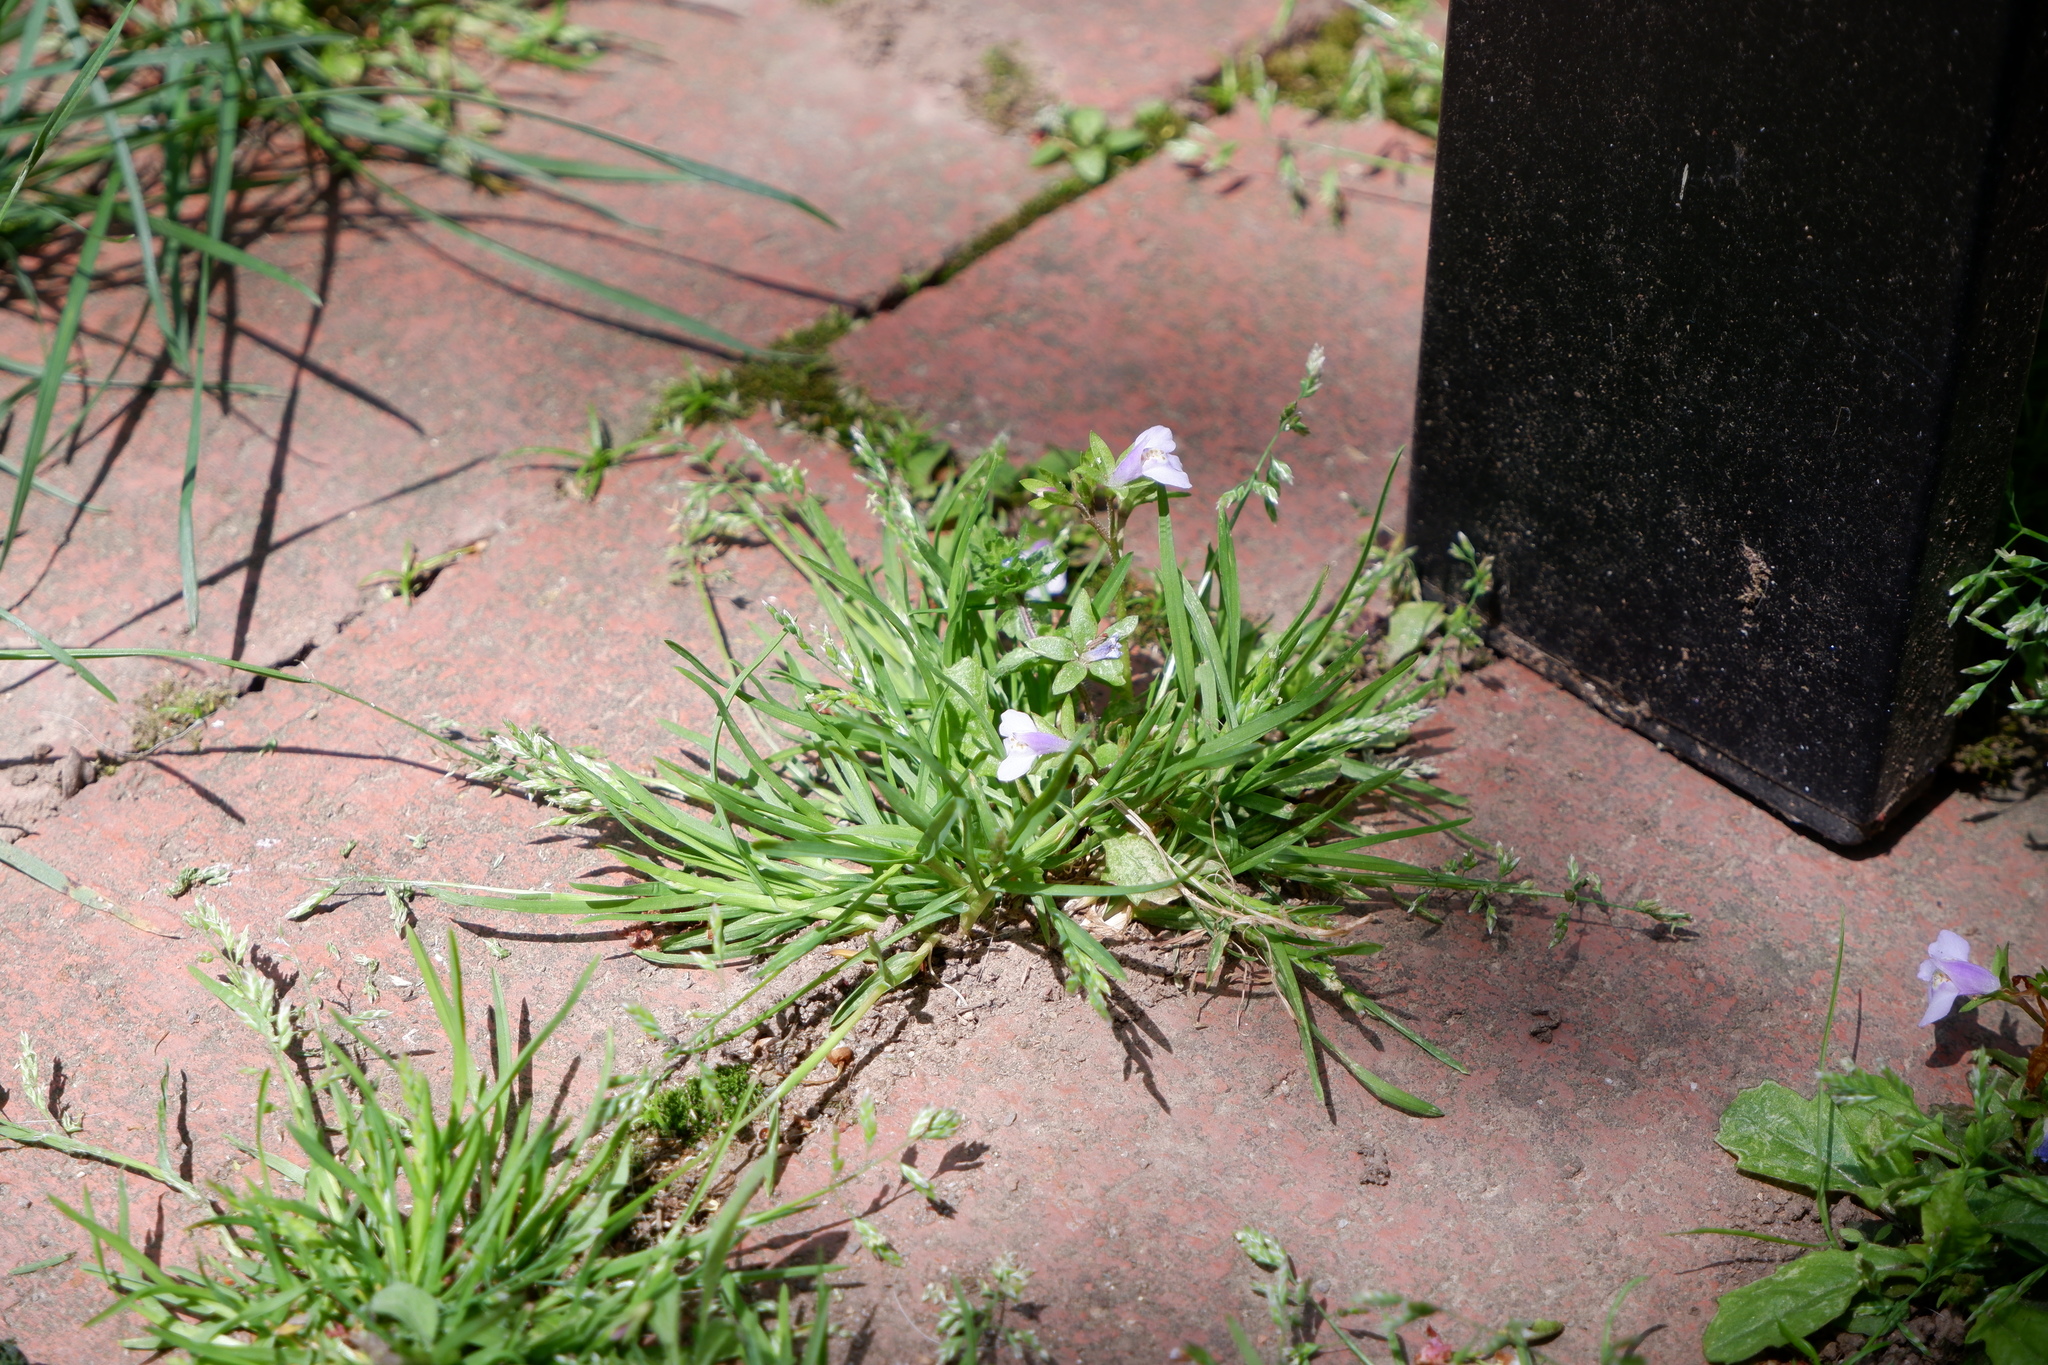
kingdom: Plantae
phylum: Tracheophyta
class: Magnoliopsida
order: Lamiales
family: Mazaceae
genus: Mazus
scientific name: Mazus pumilus
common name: Japanese mazus
